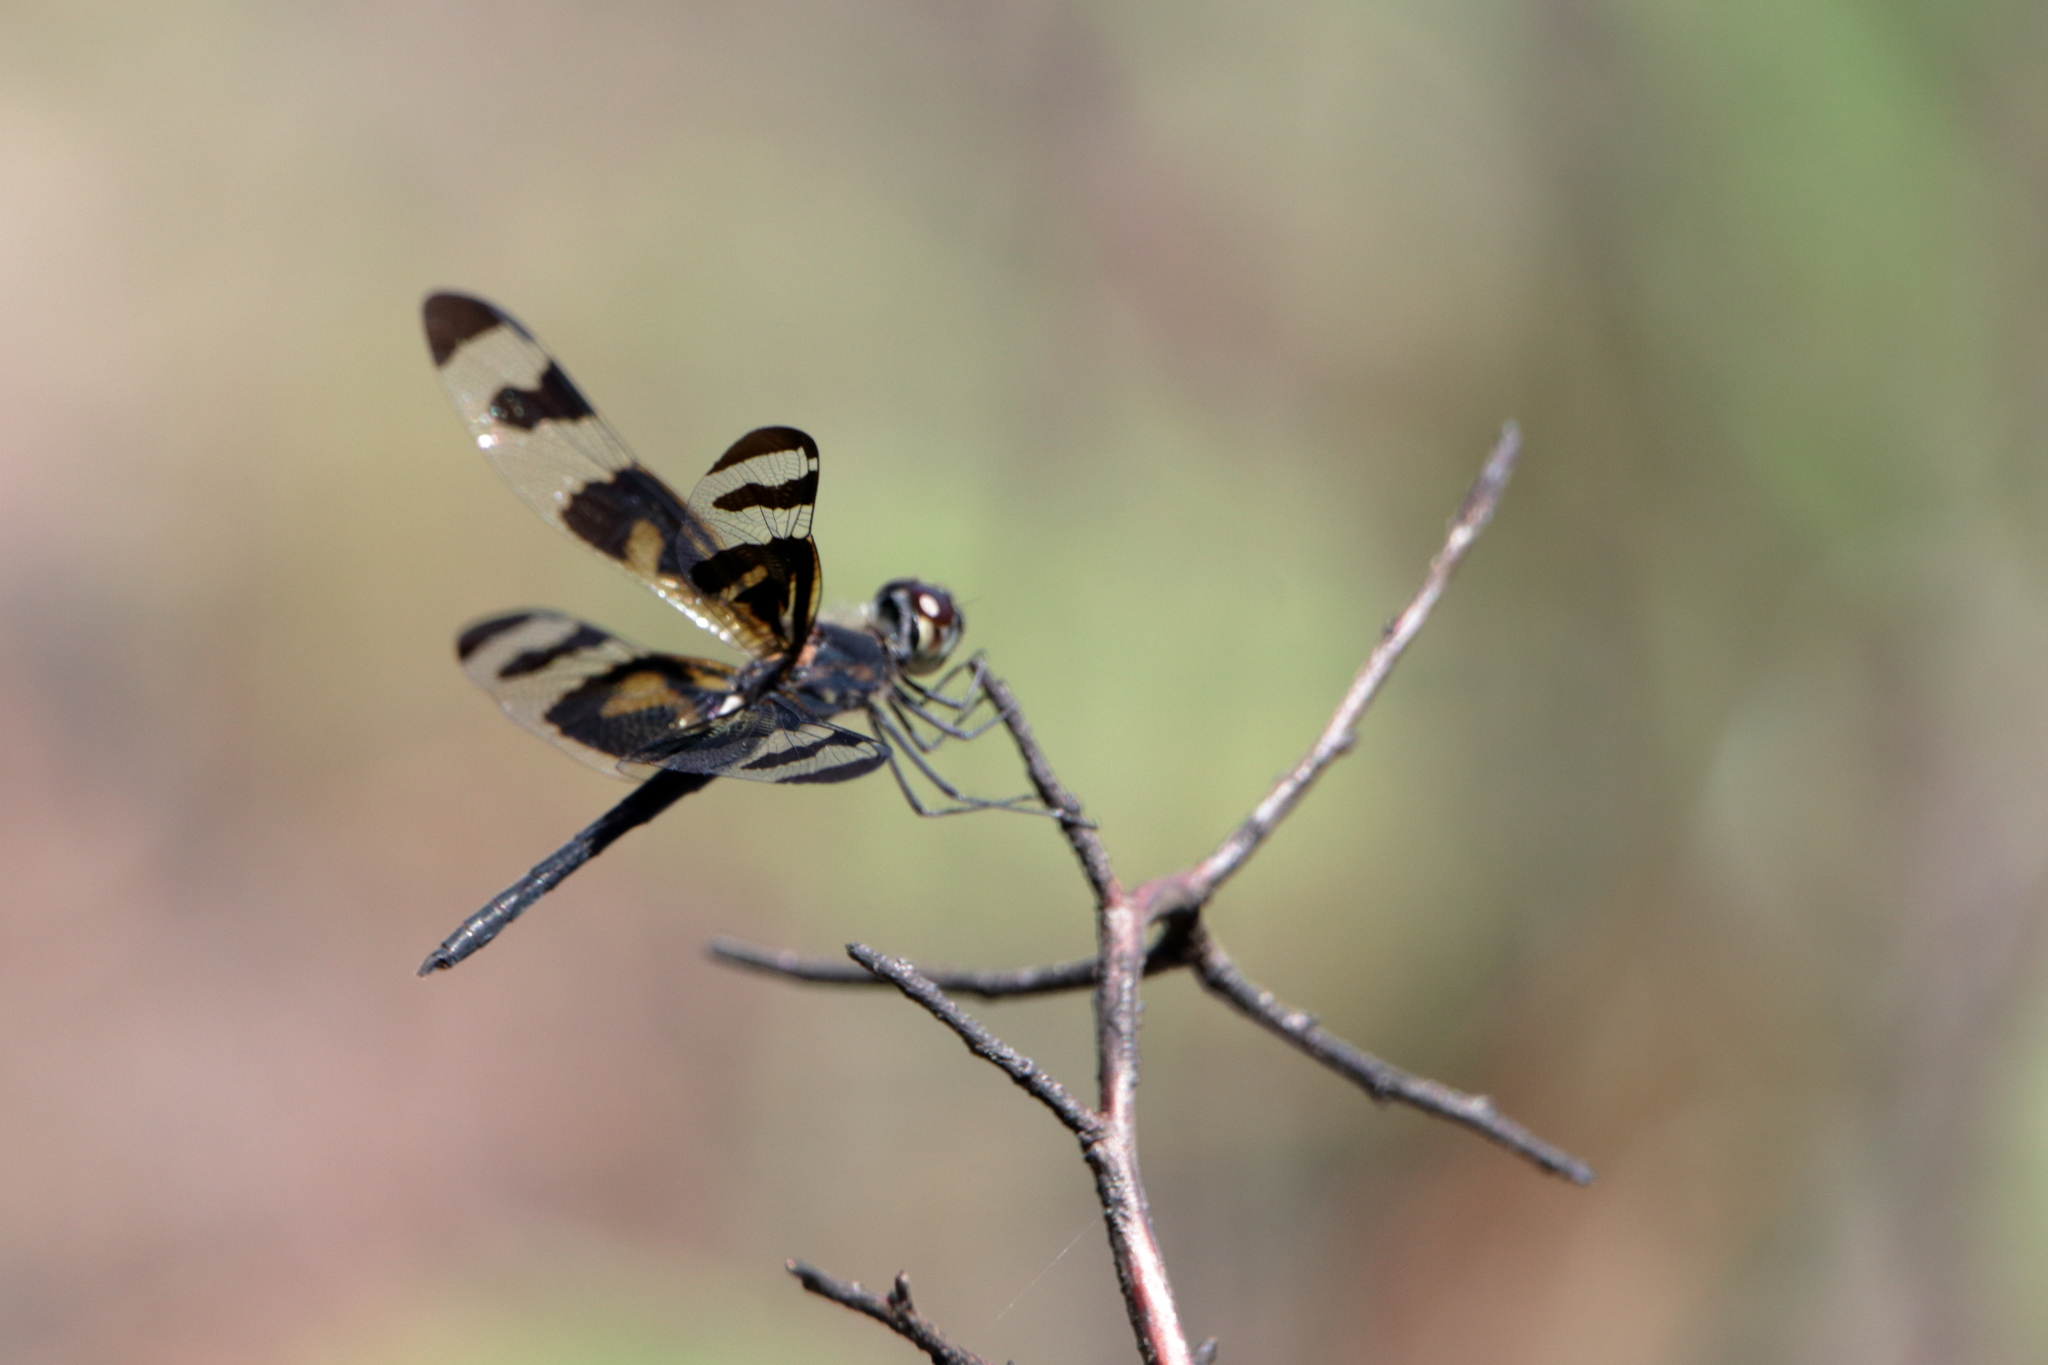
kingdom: Animalia
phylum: Arthropoda
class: Insecta
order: Odonata
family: Libellulidae
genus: Celithemis
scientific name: Celithemis fasciata
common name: Banded pennant
